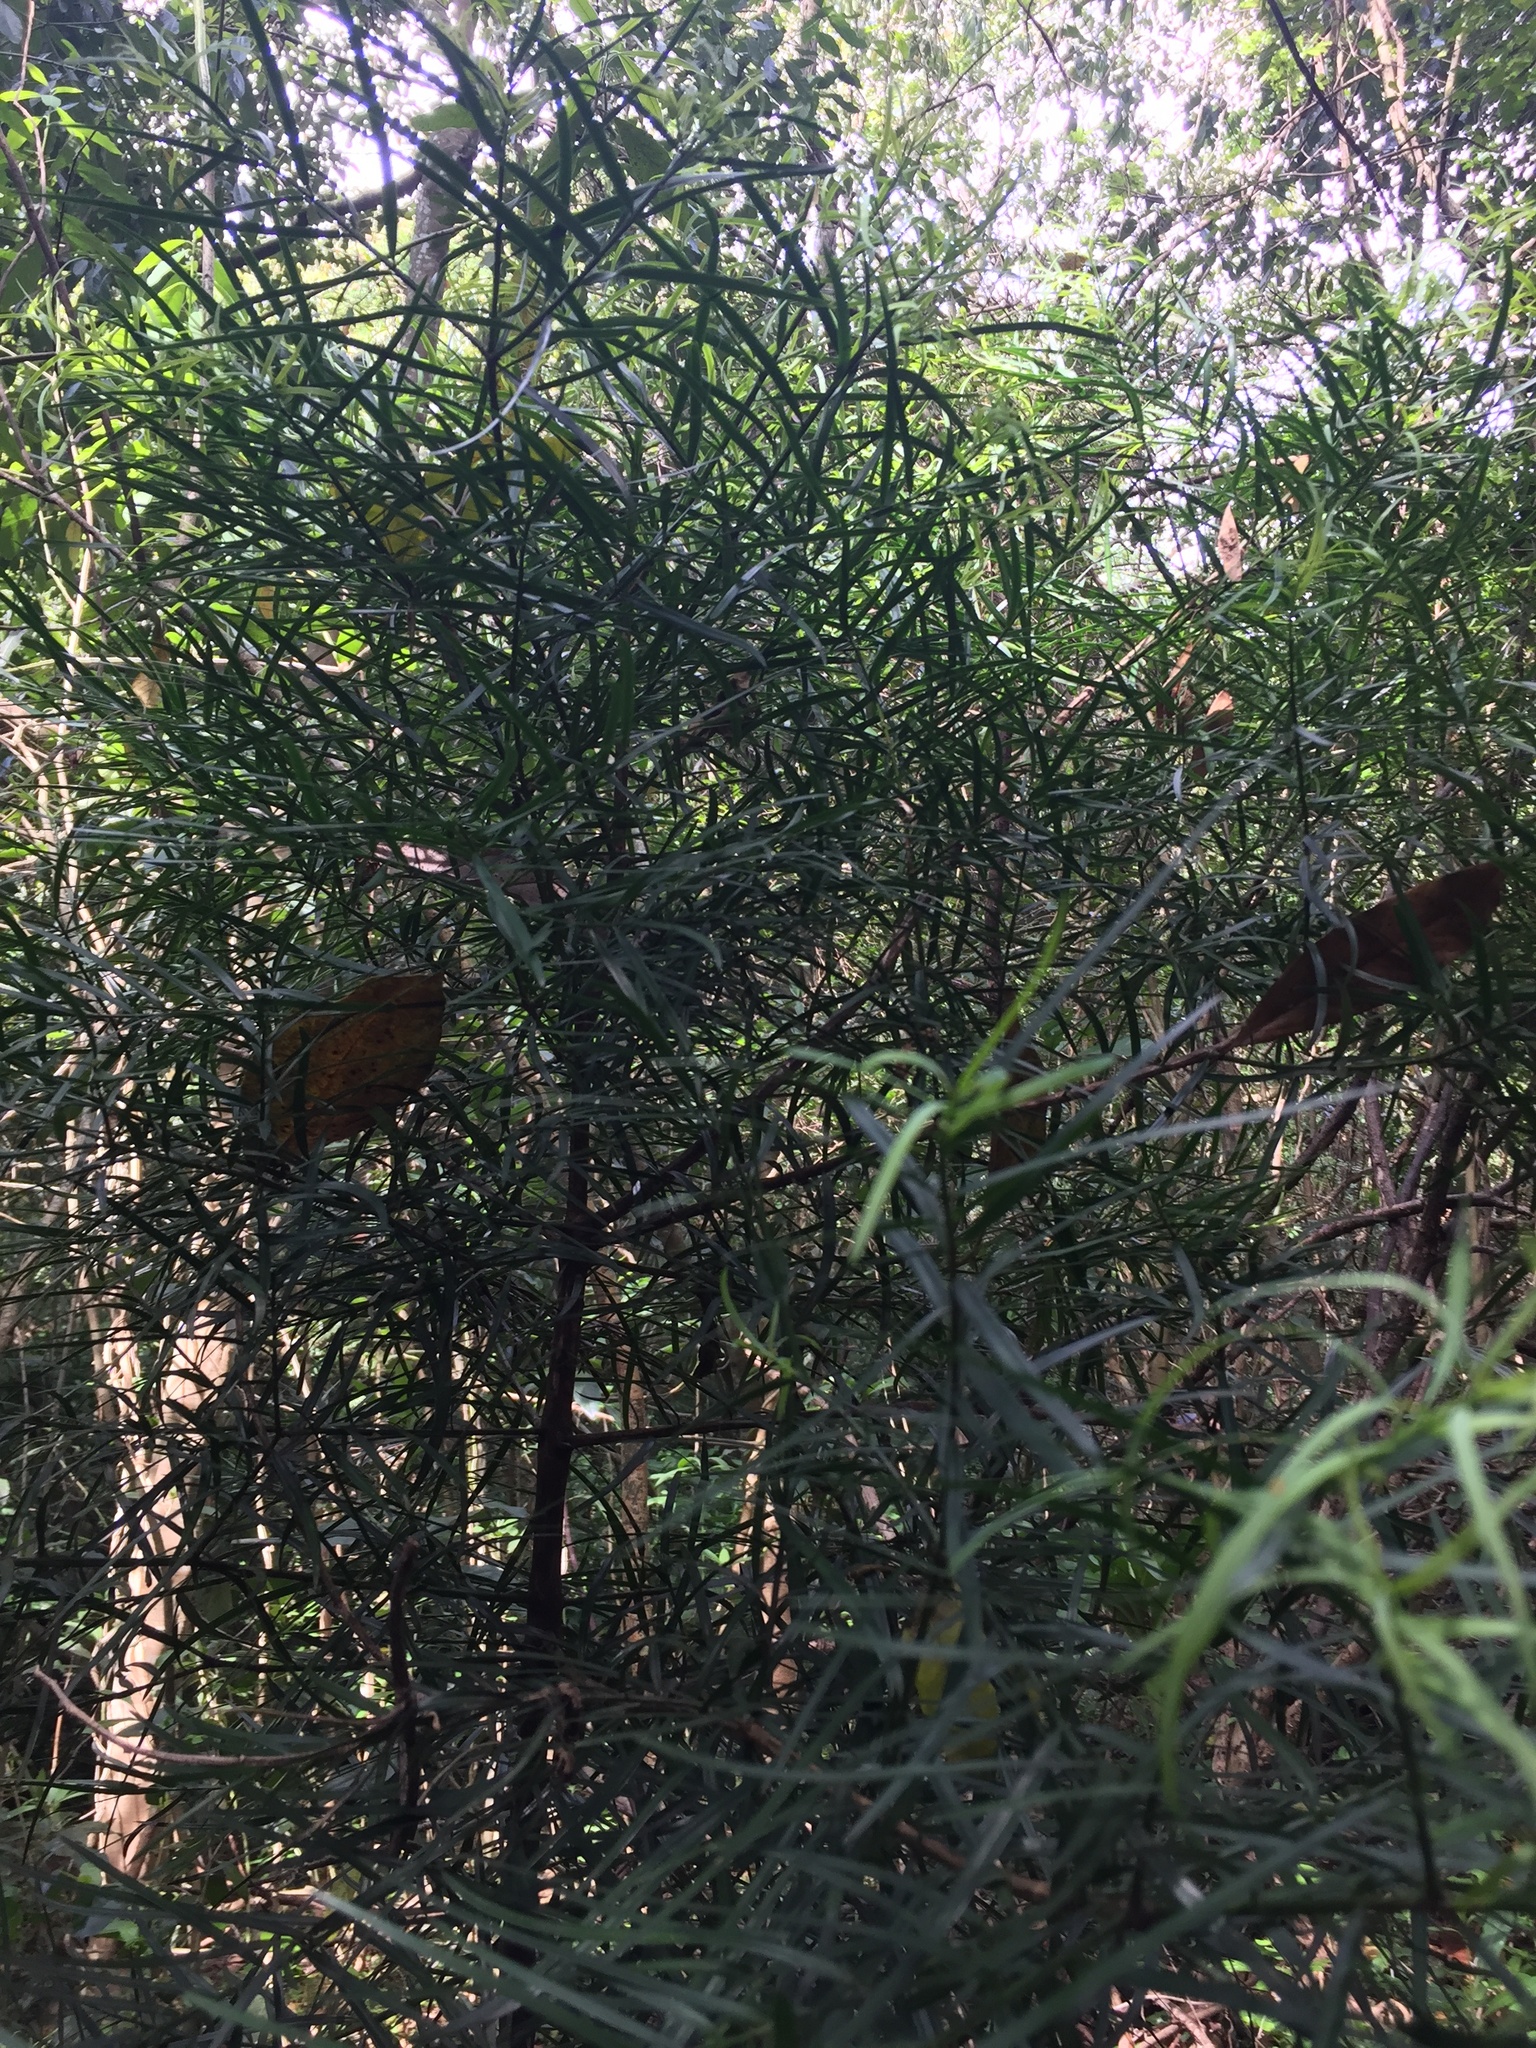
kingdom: Plantae
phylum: Tracheophyta
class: Pinopsida
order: Pinales
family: Podocarpaceae
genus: Podocarpus
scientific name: Podocarpus henkelii
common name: Henkel's yellowwood
